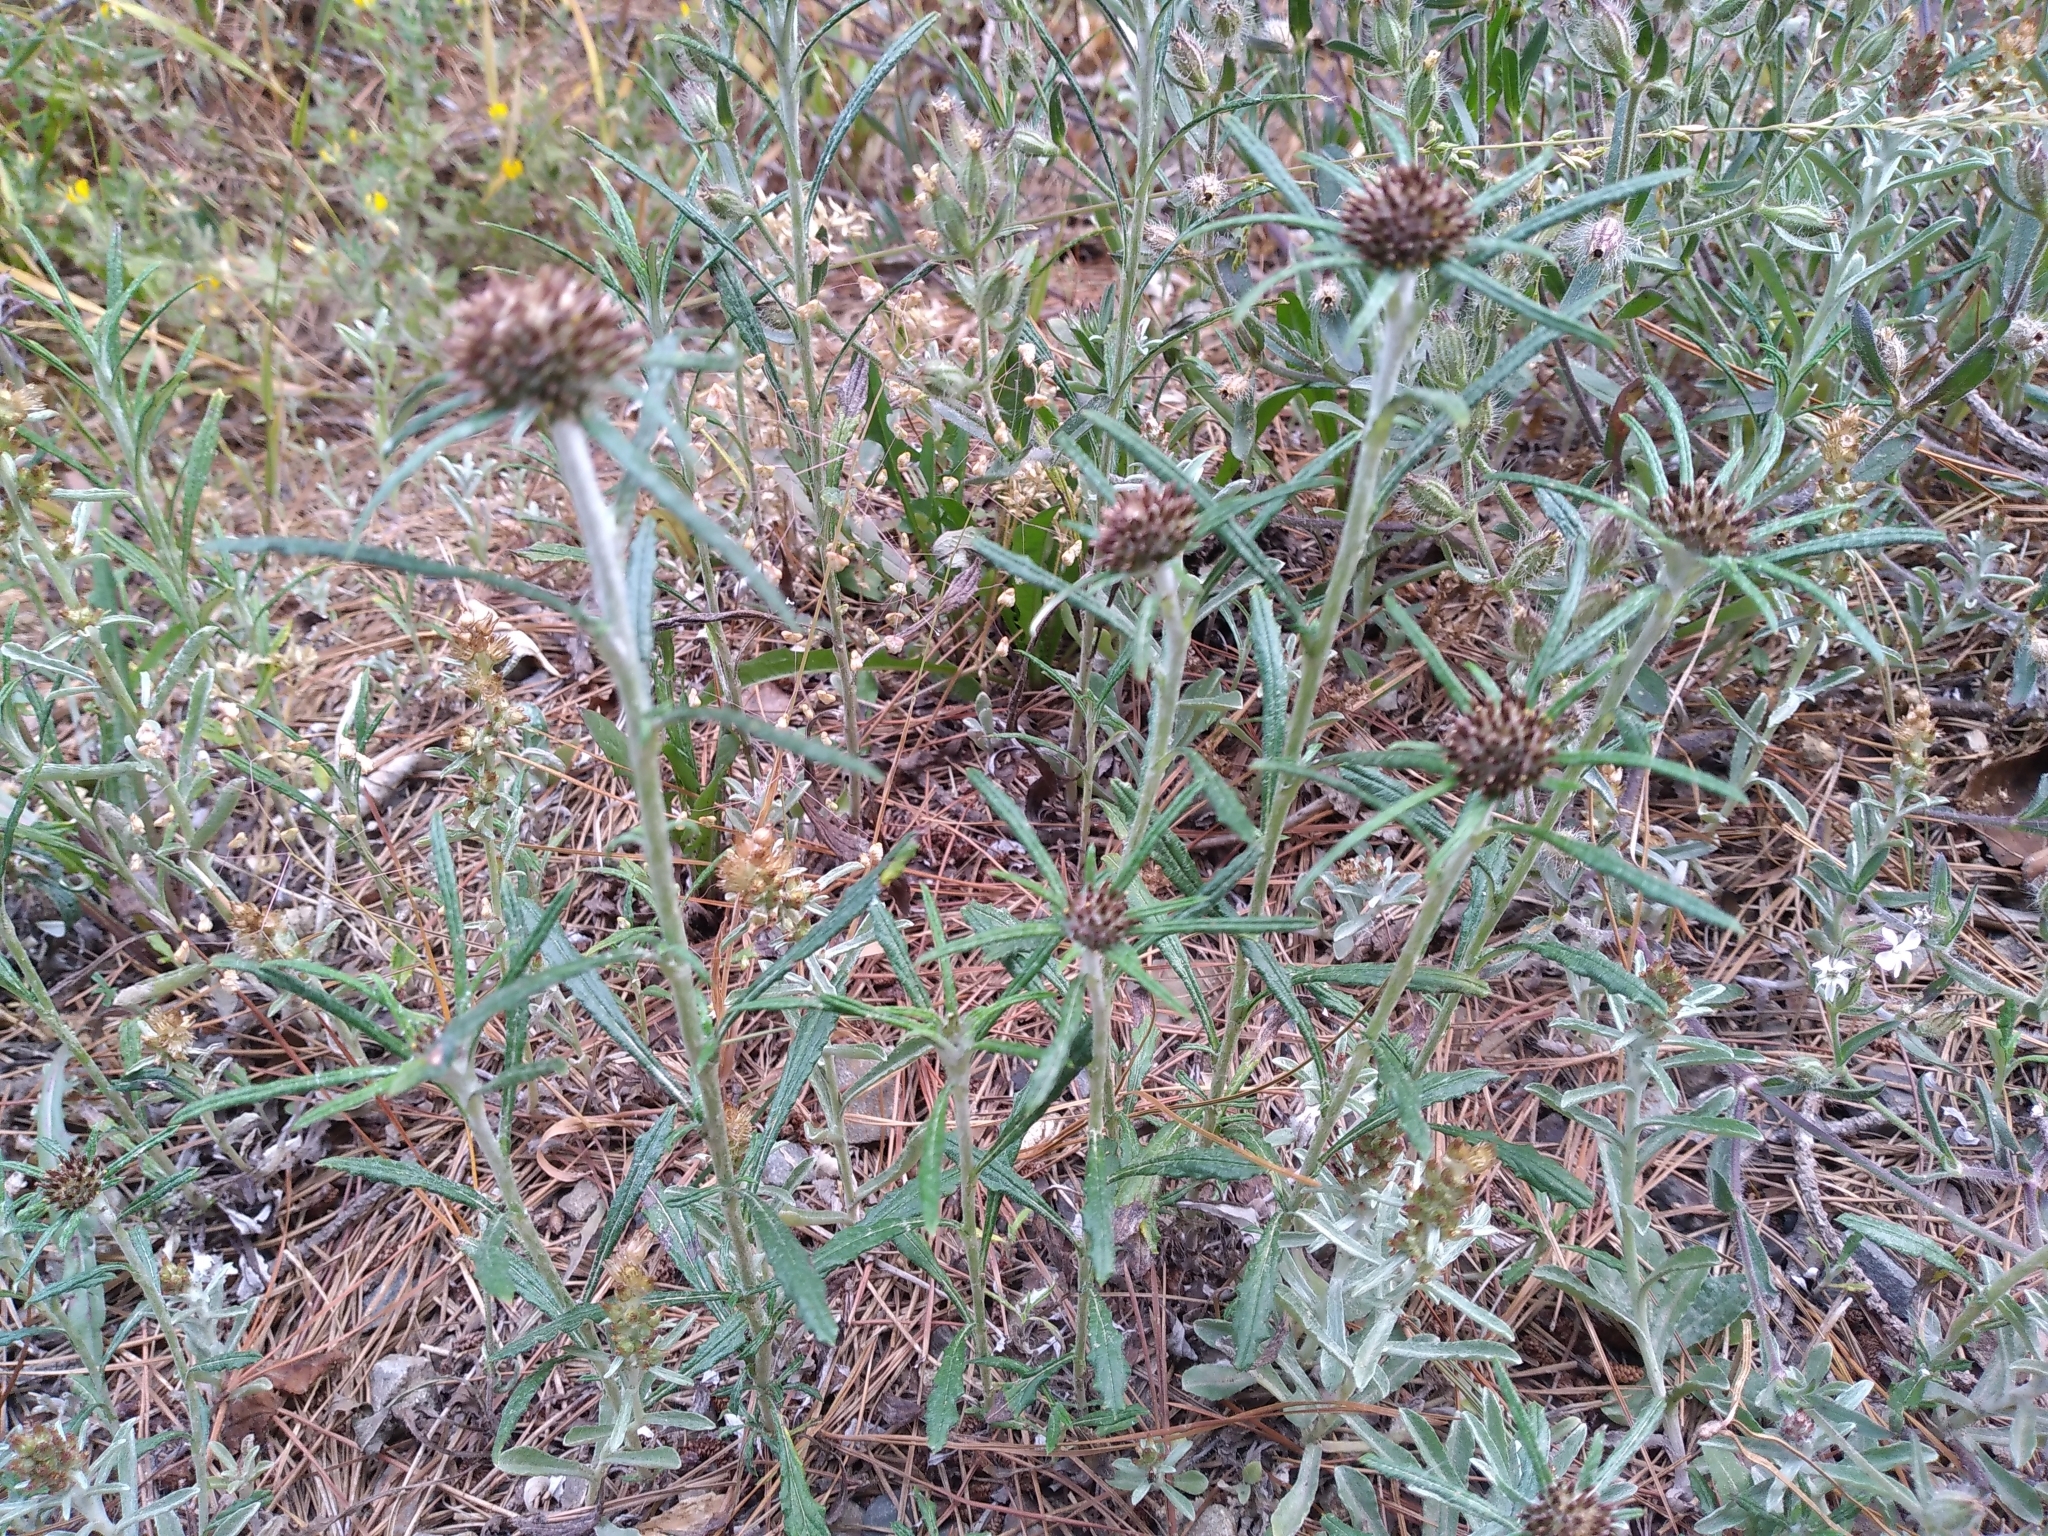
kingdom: Plantae
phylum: Tracheophyta
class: Magnoliopsida
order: Asterales
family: Asteraceae
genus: Euchiton
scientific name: Euchiton sphaericus
